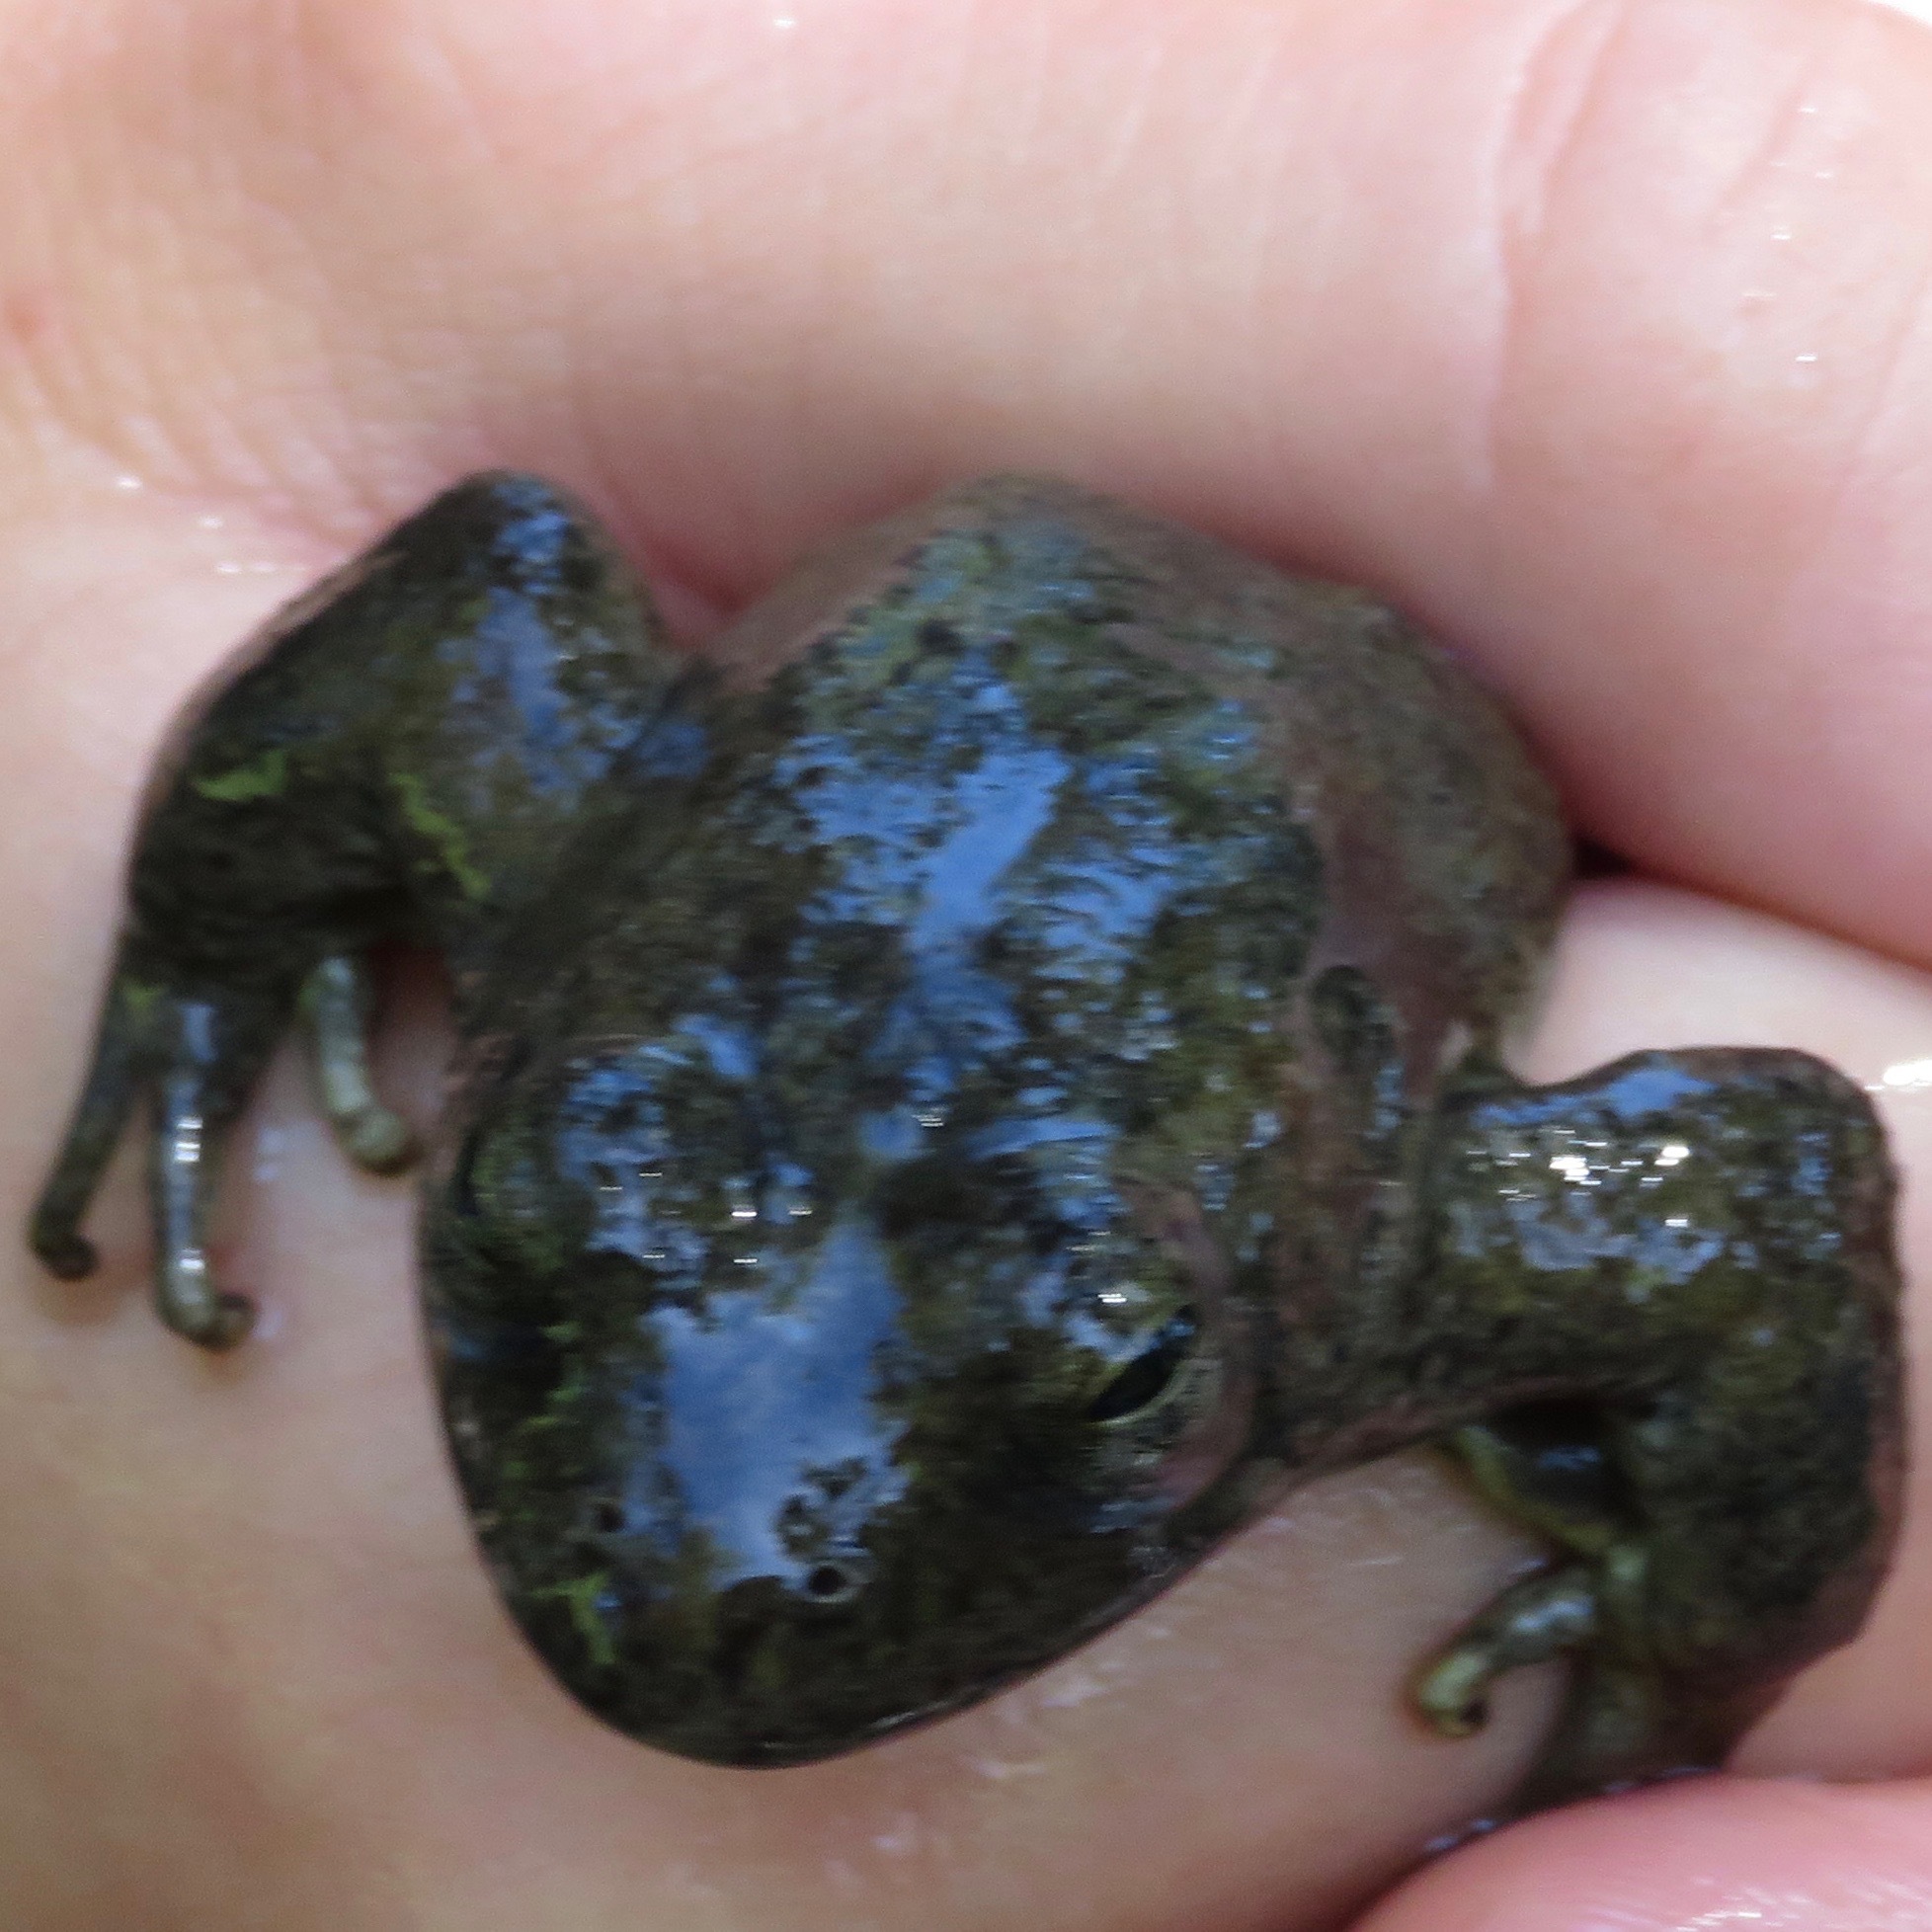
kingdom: Animalia
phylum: Chordata
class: Amphibia
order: Anura
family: Ranidae
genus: Rana
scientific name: Rana boylii
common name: Foothill yellow-legged frog
